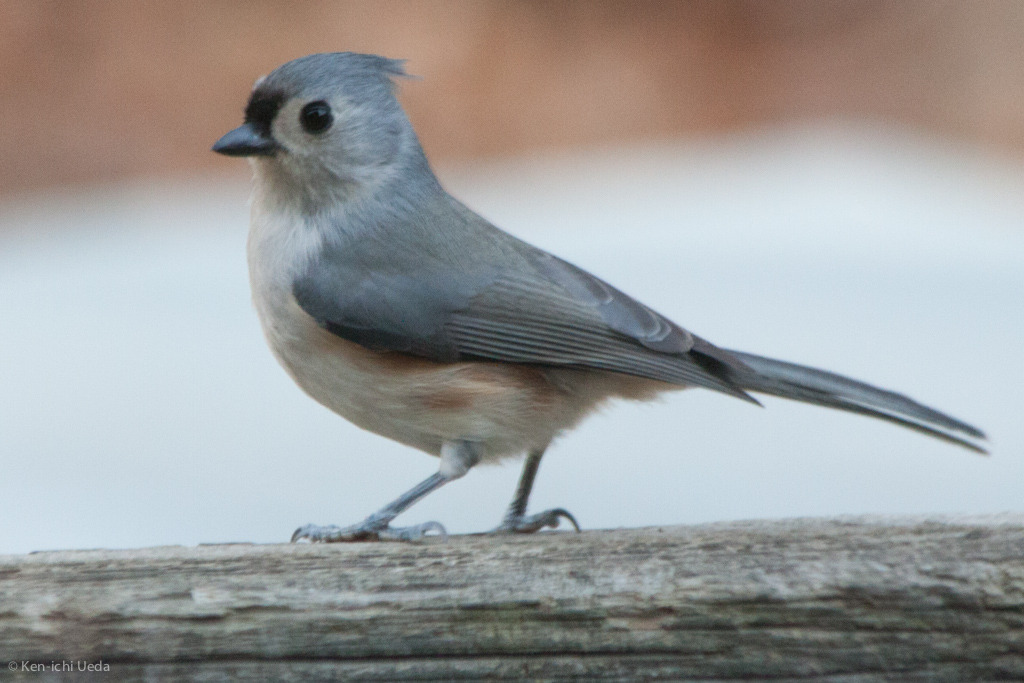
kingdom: Animalia
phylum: Chordata
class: Aves
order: Passeriformes
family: Paridae
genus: Baeolophus
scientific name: Baeolophus bicolor
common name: Tufted titmouse
